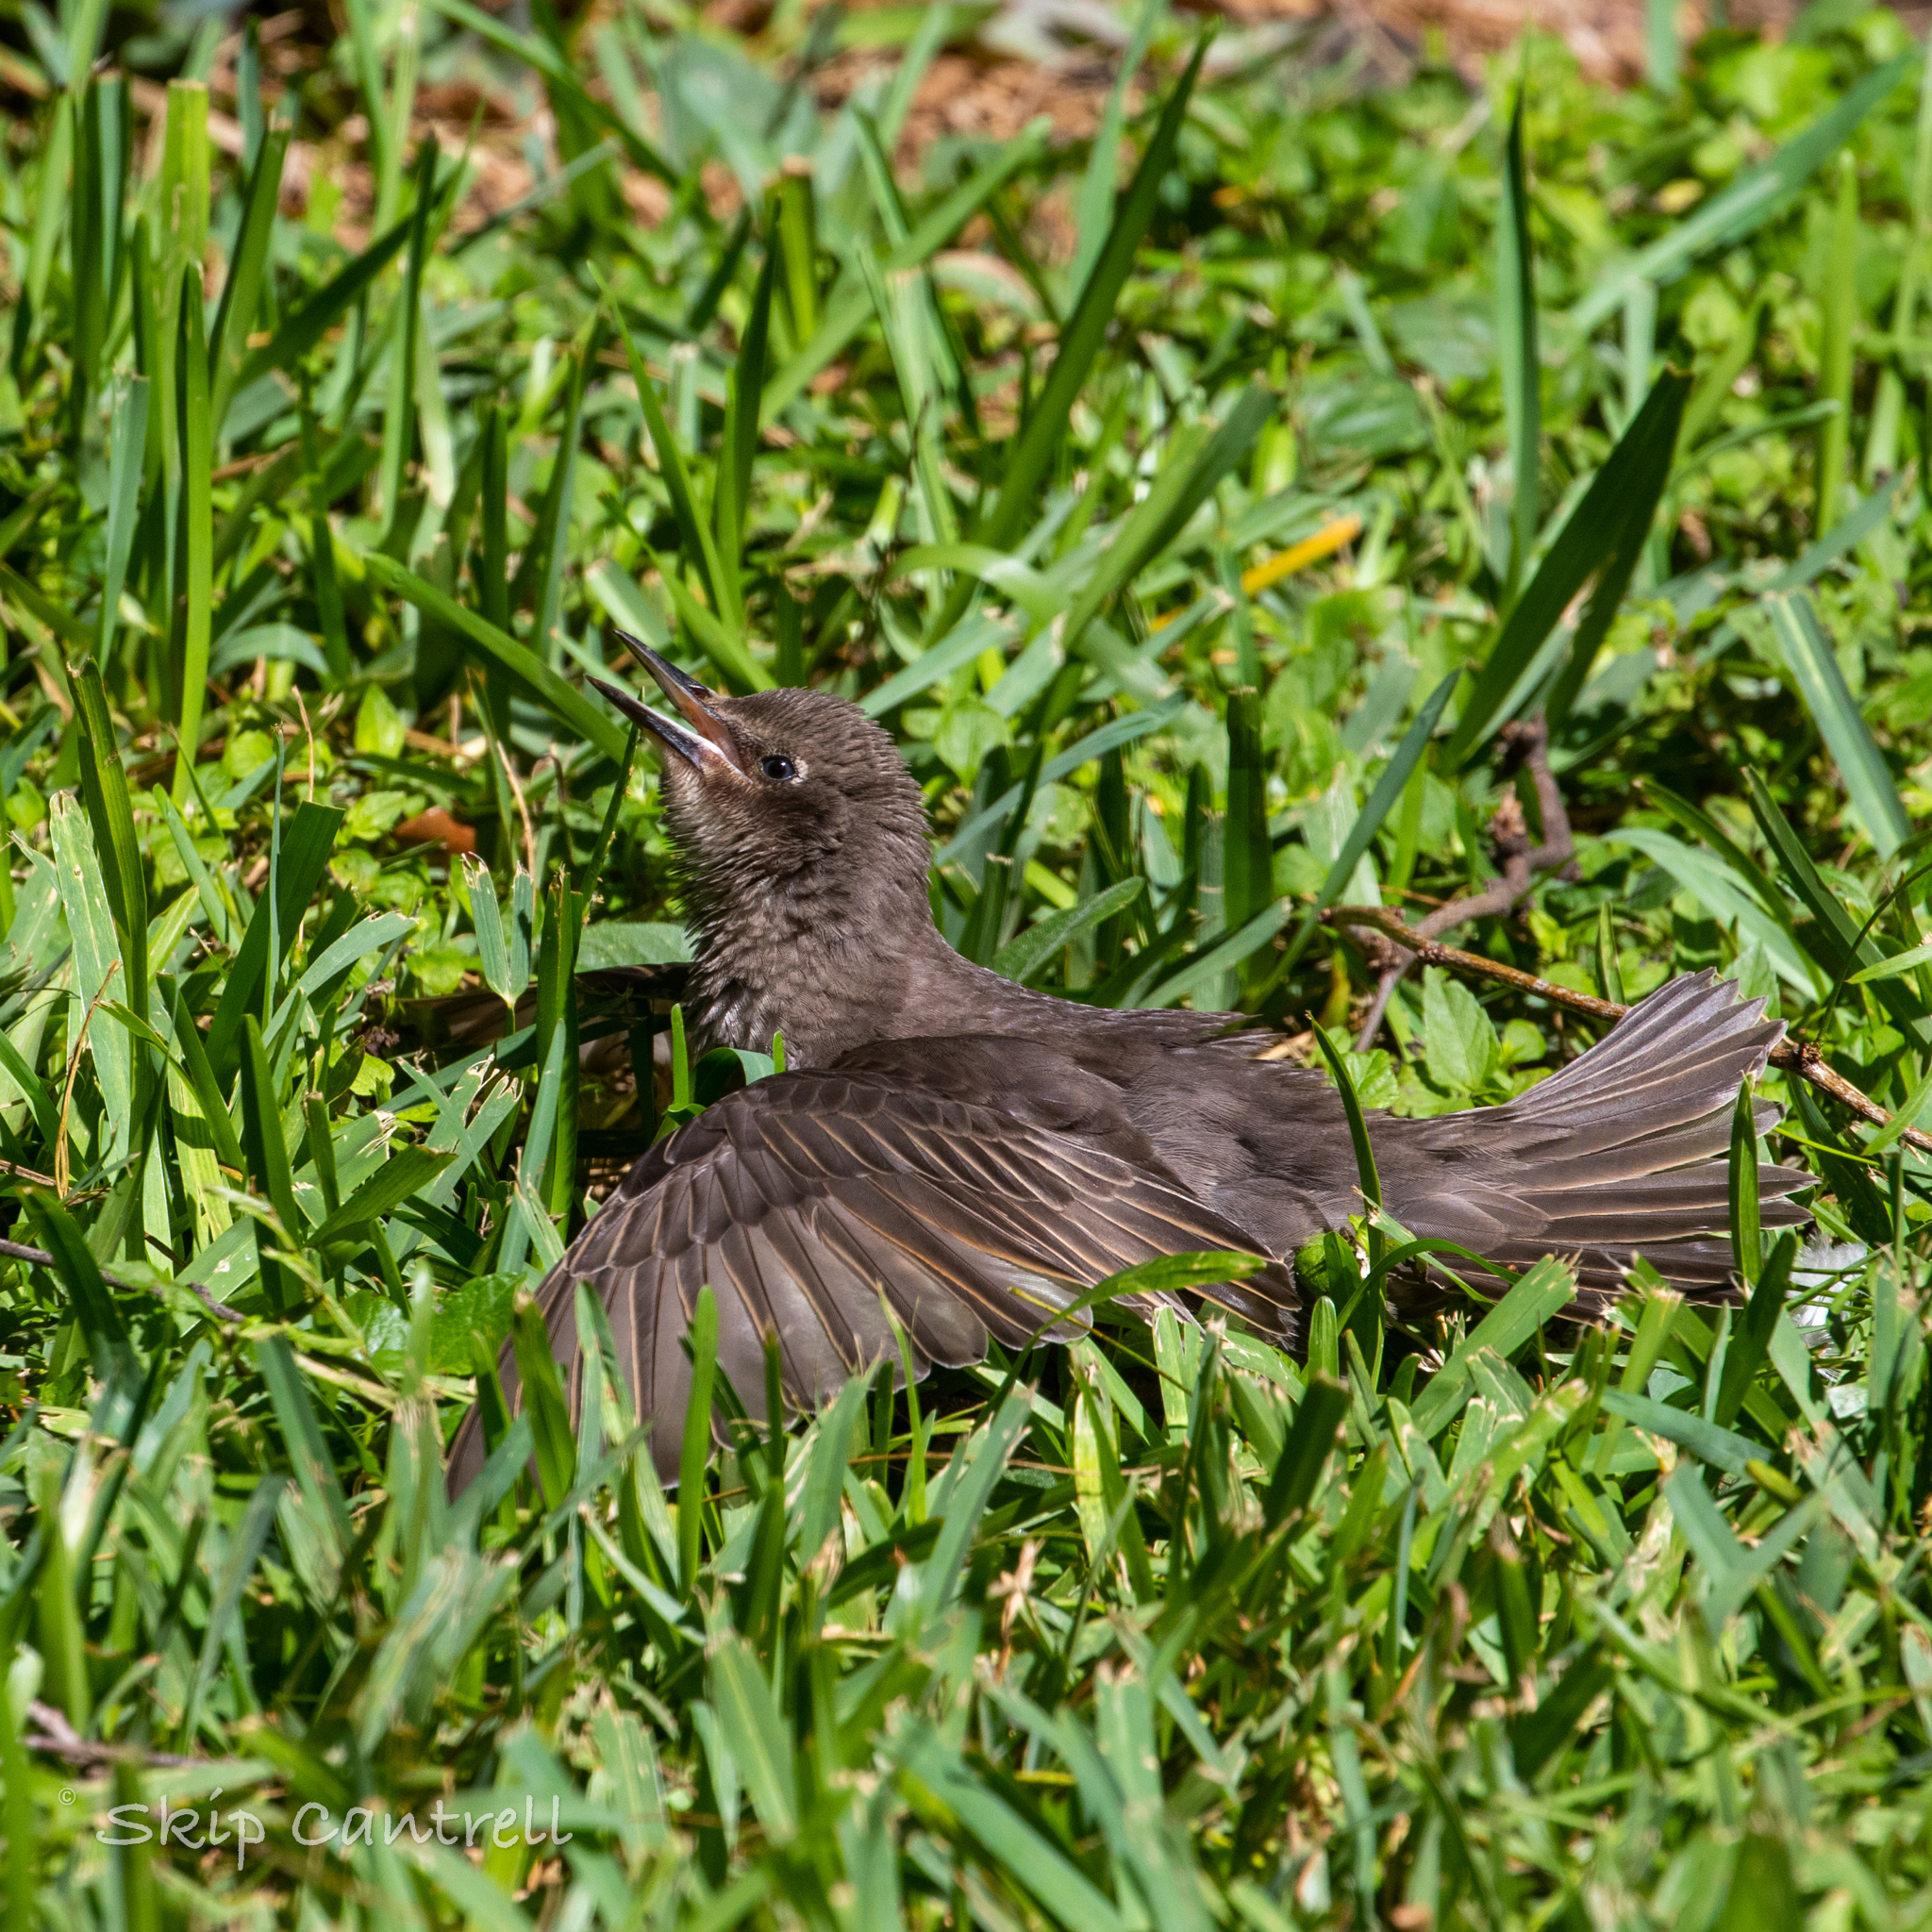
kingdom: Animalia
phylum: Chordata
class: Aves
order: Passeriformes
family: Sturnidae
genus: Sturnus
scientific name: Sturnus vulgaris
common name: Common starling
